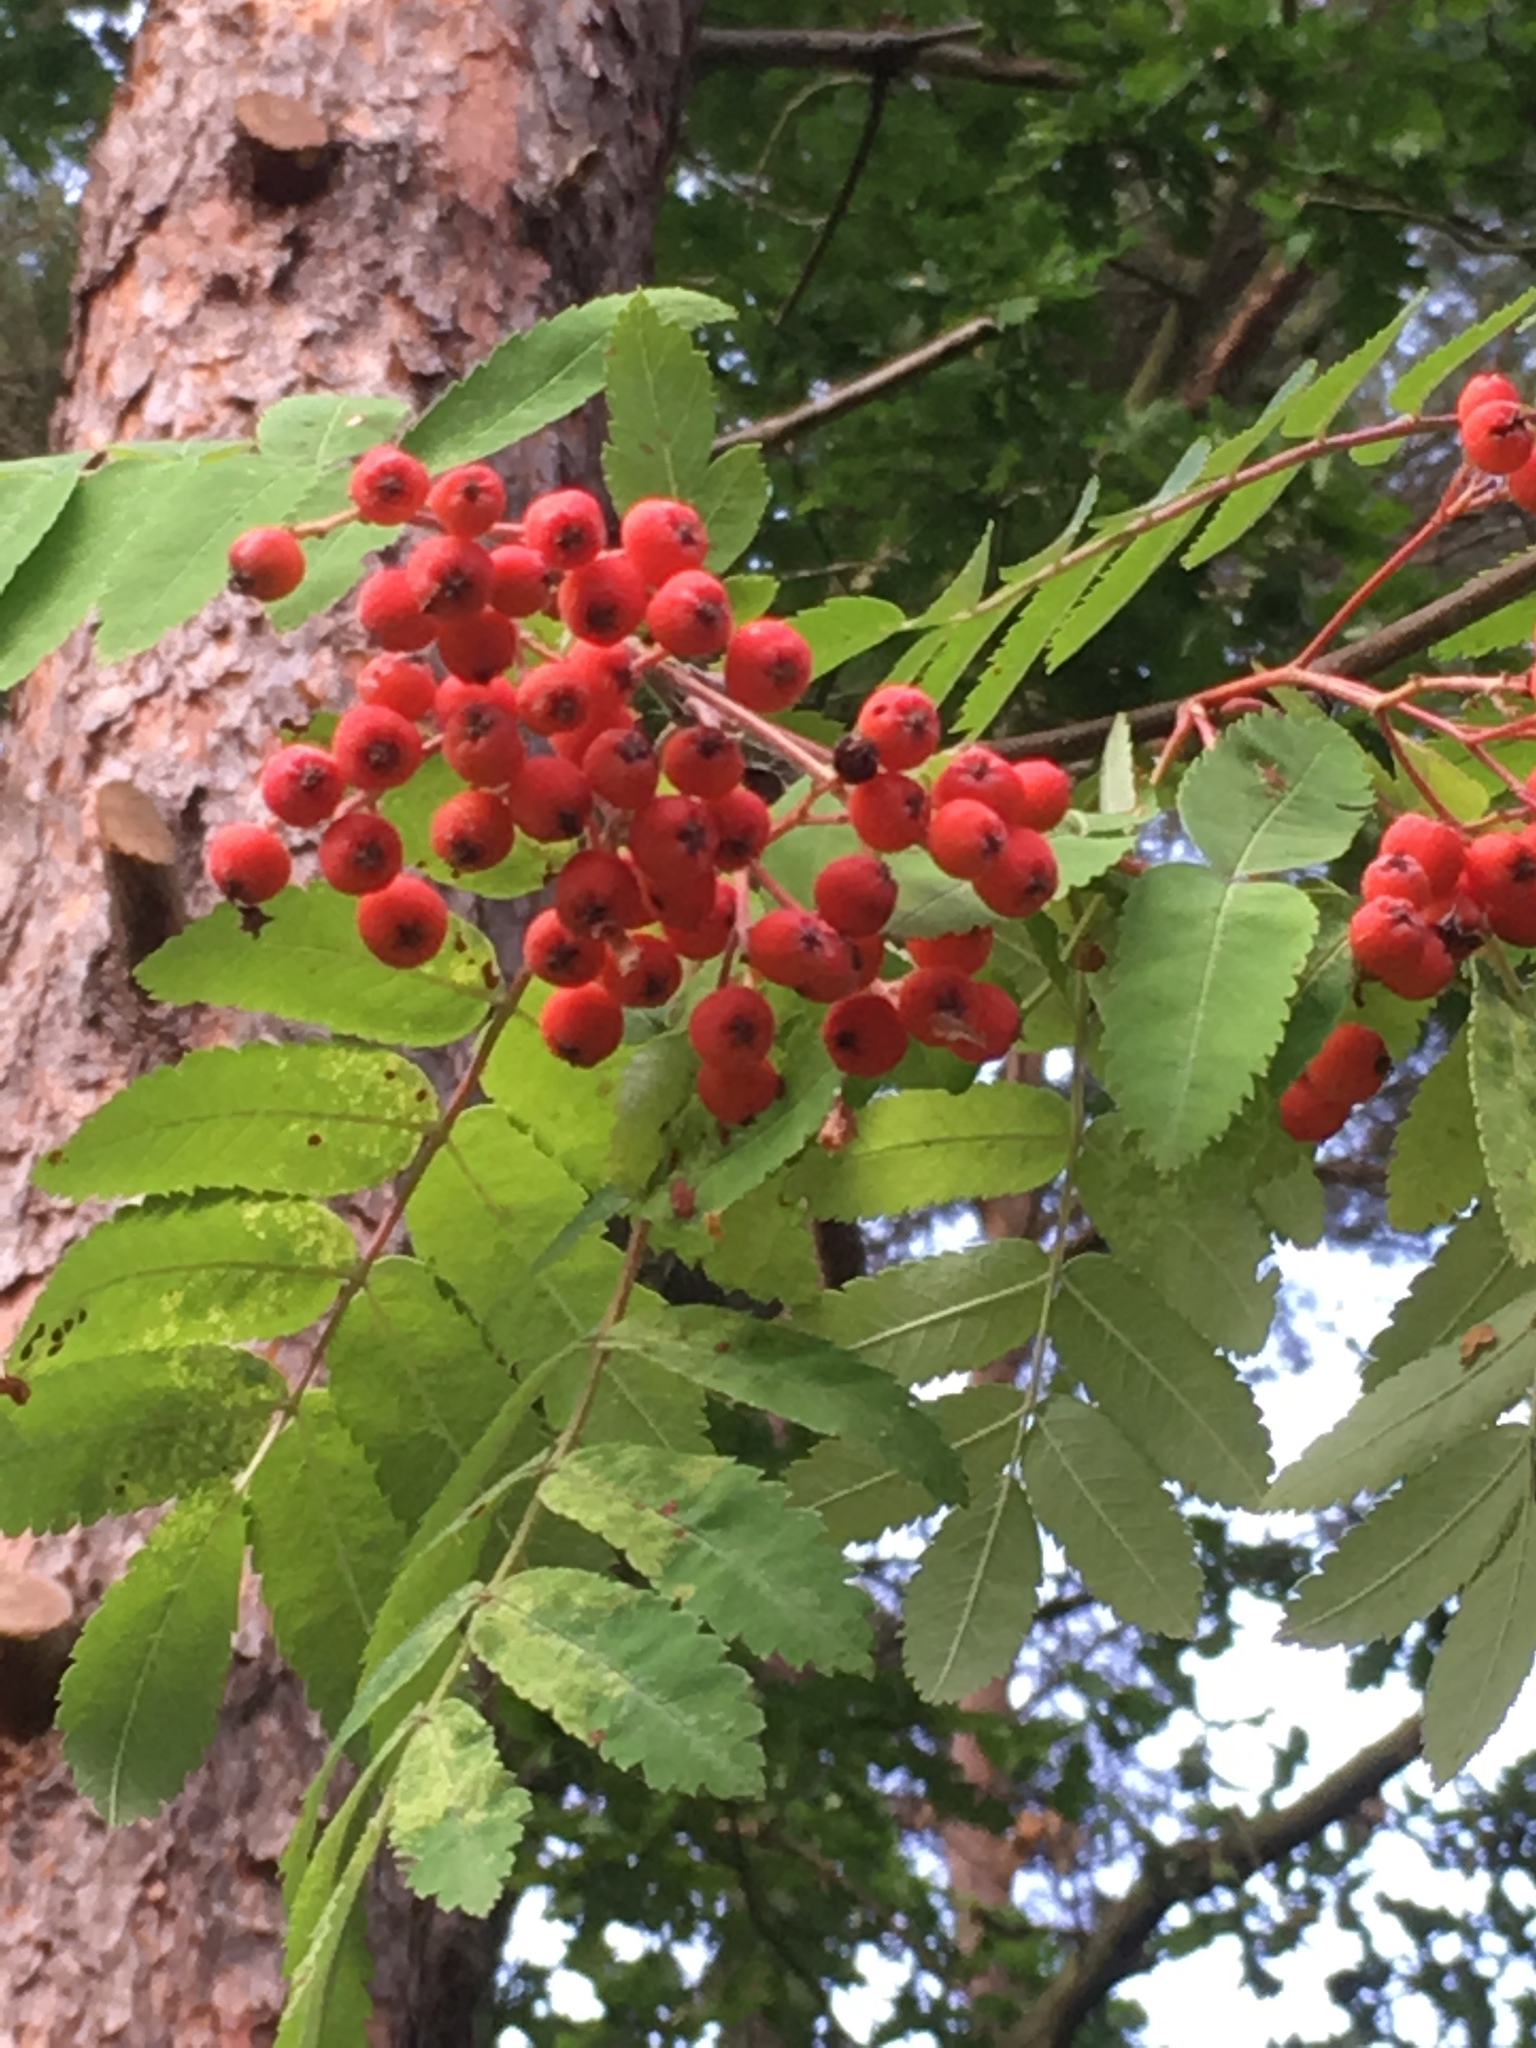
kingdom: Plantae
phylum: Tracheophyta
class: Magnoliopsida
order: Rosales
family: Rosaceae
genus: Sorbus
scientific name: Sorbus aucuparia
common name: Rowan
